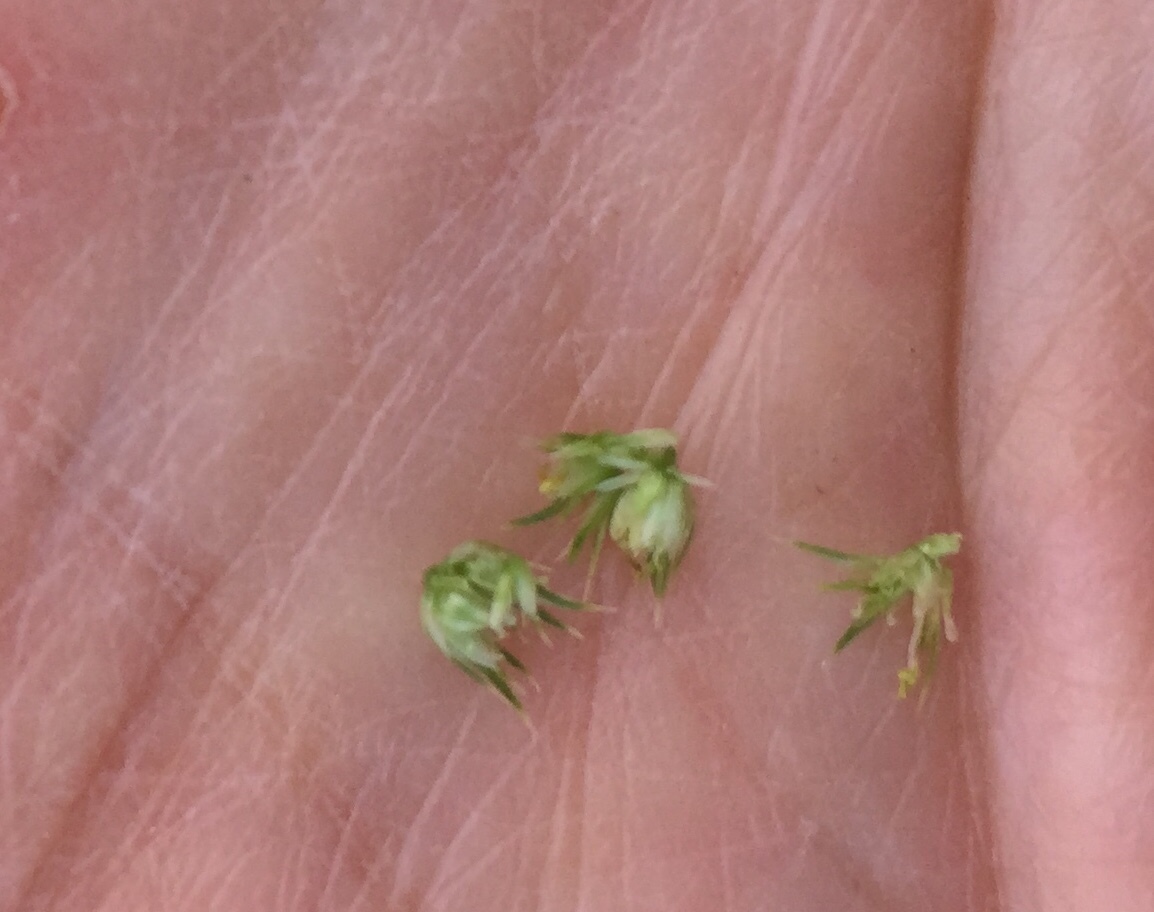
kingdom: Plantae
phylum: Tracheophyta
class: Magnoliopsida
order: Caryophyllales
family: Amaranthaceae
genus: Amaranthus
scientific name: Amaranthus hybridus
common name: Green amaranth
